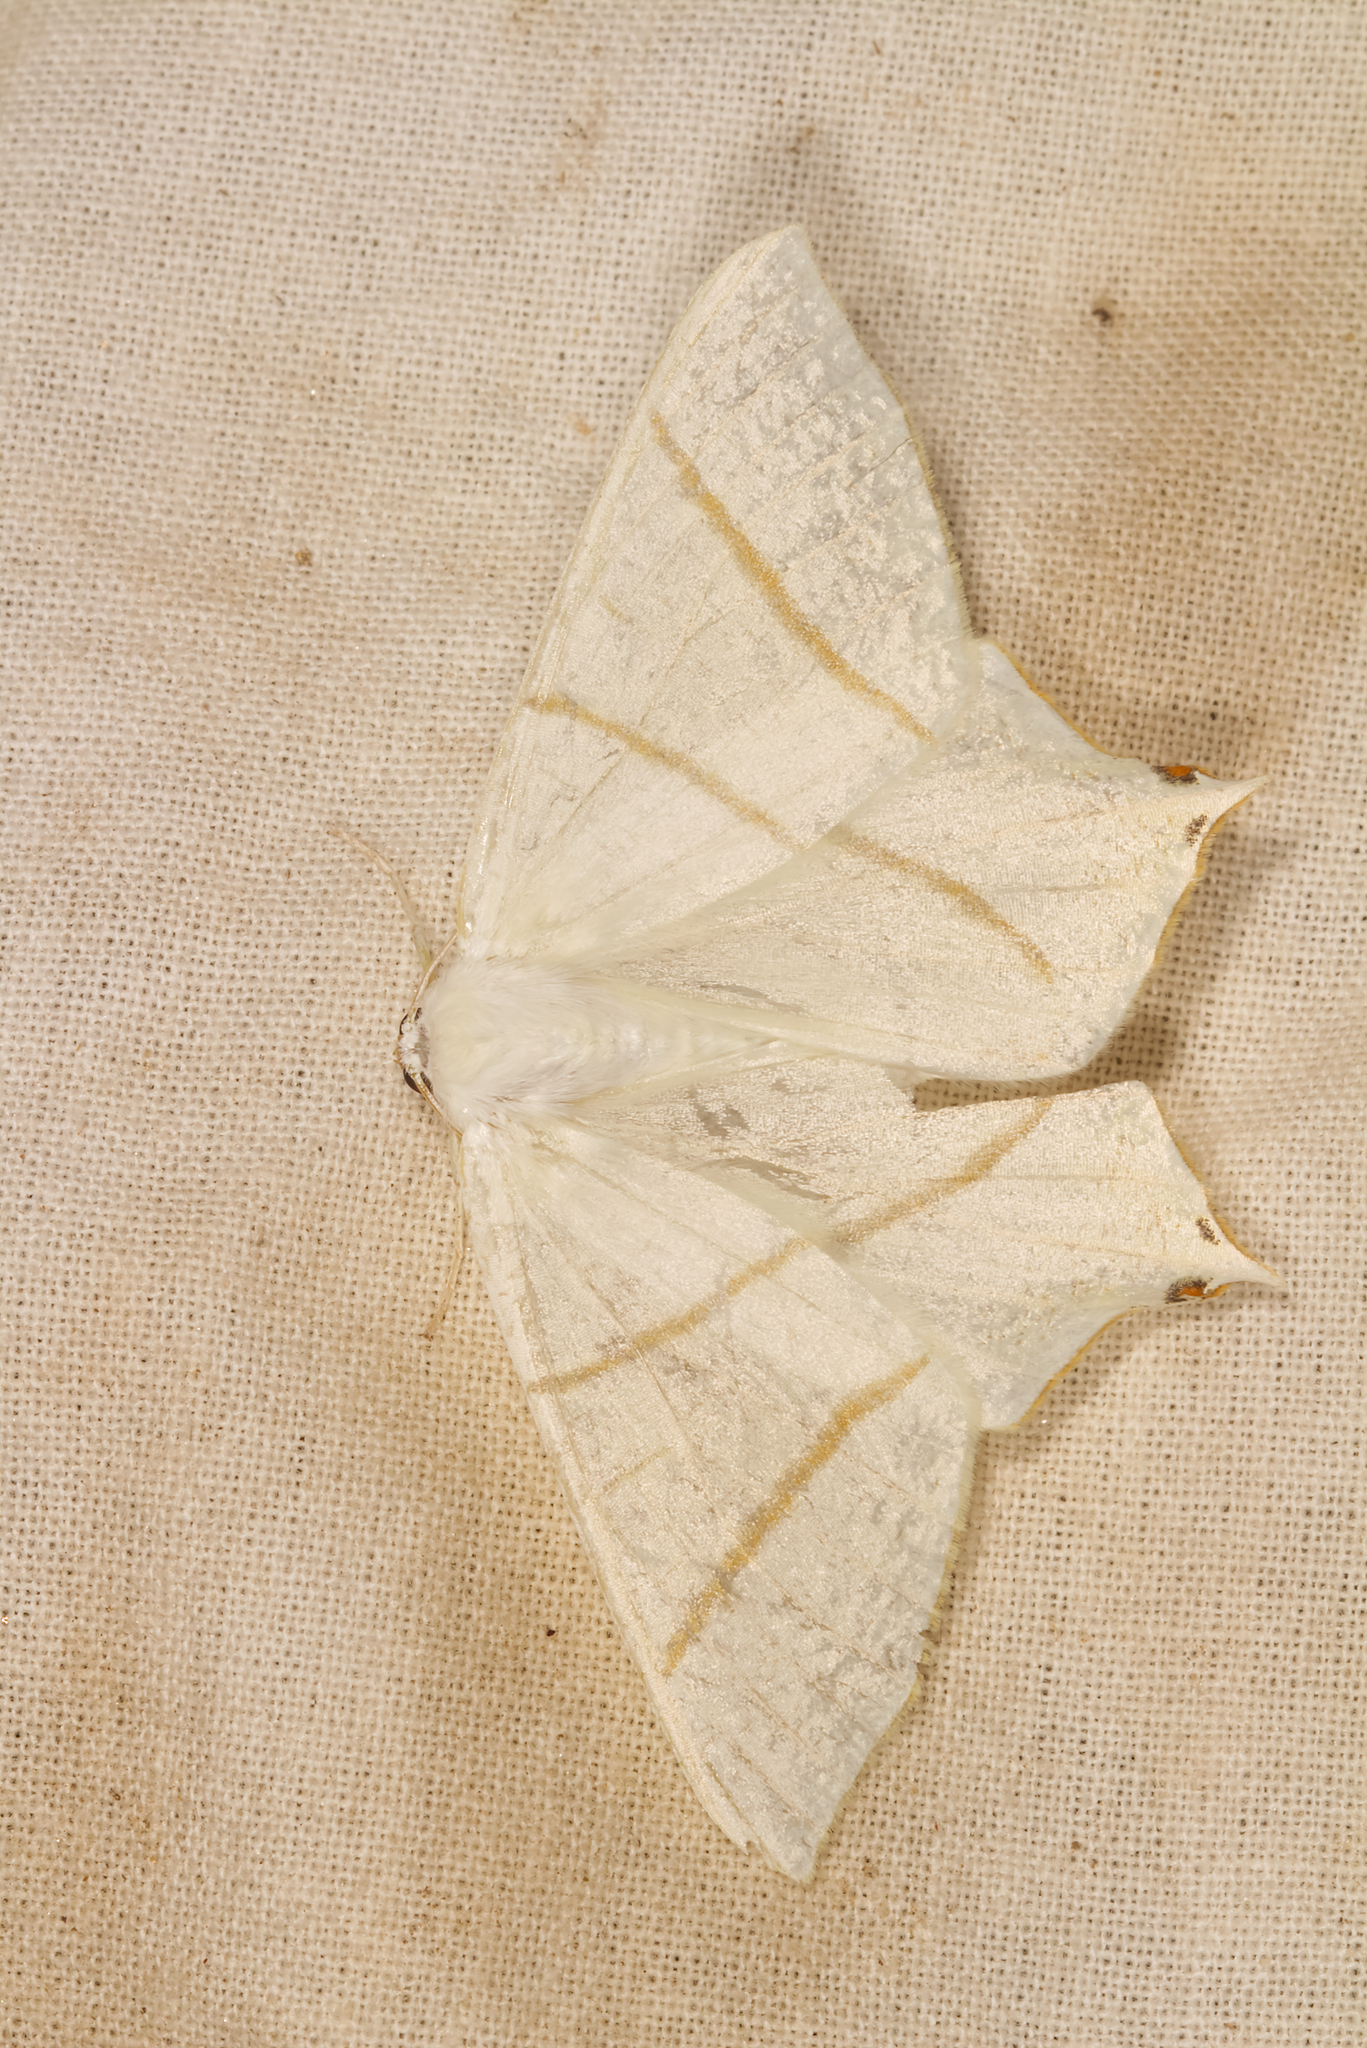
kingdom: Animalia
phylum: Arthropoda
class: Insecta
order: Lepidoptera
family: Geometridae
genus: Ourapteryx
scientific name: Ourapteryx sambucaria
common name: Swallow-tailed moth
